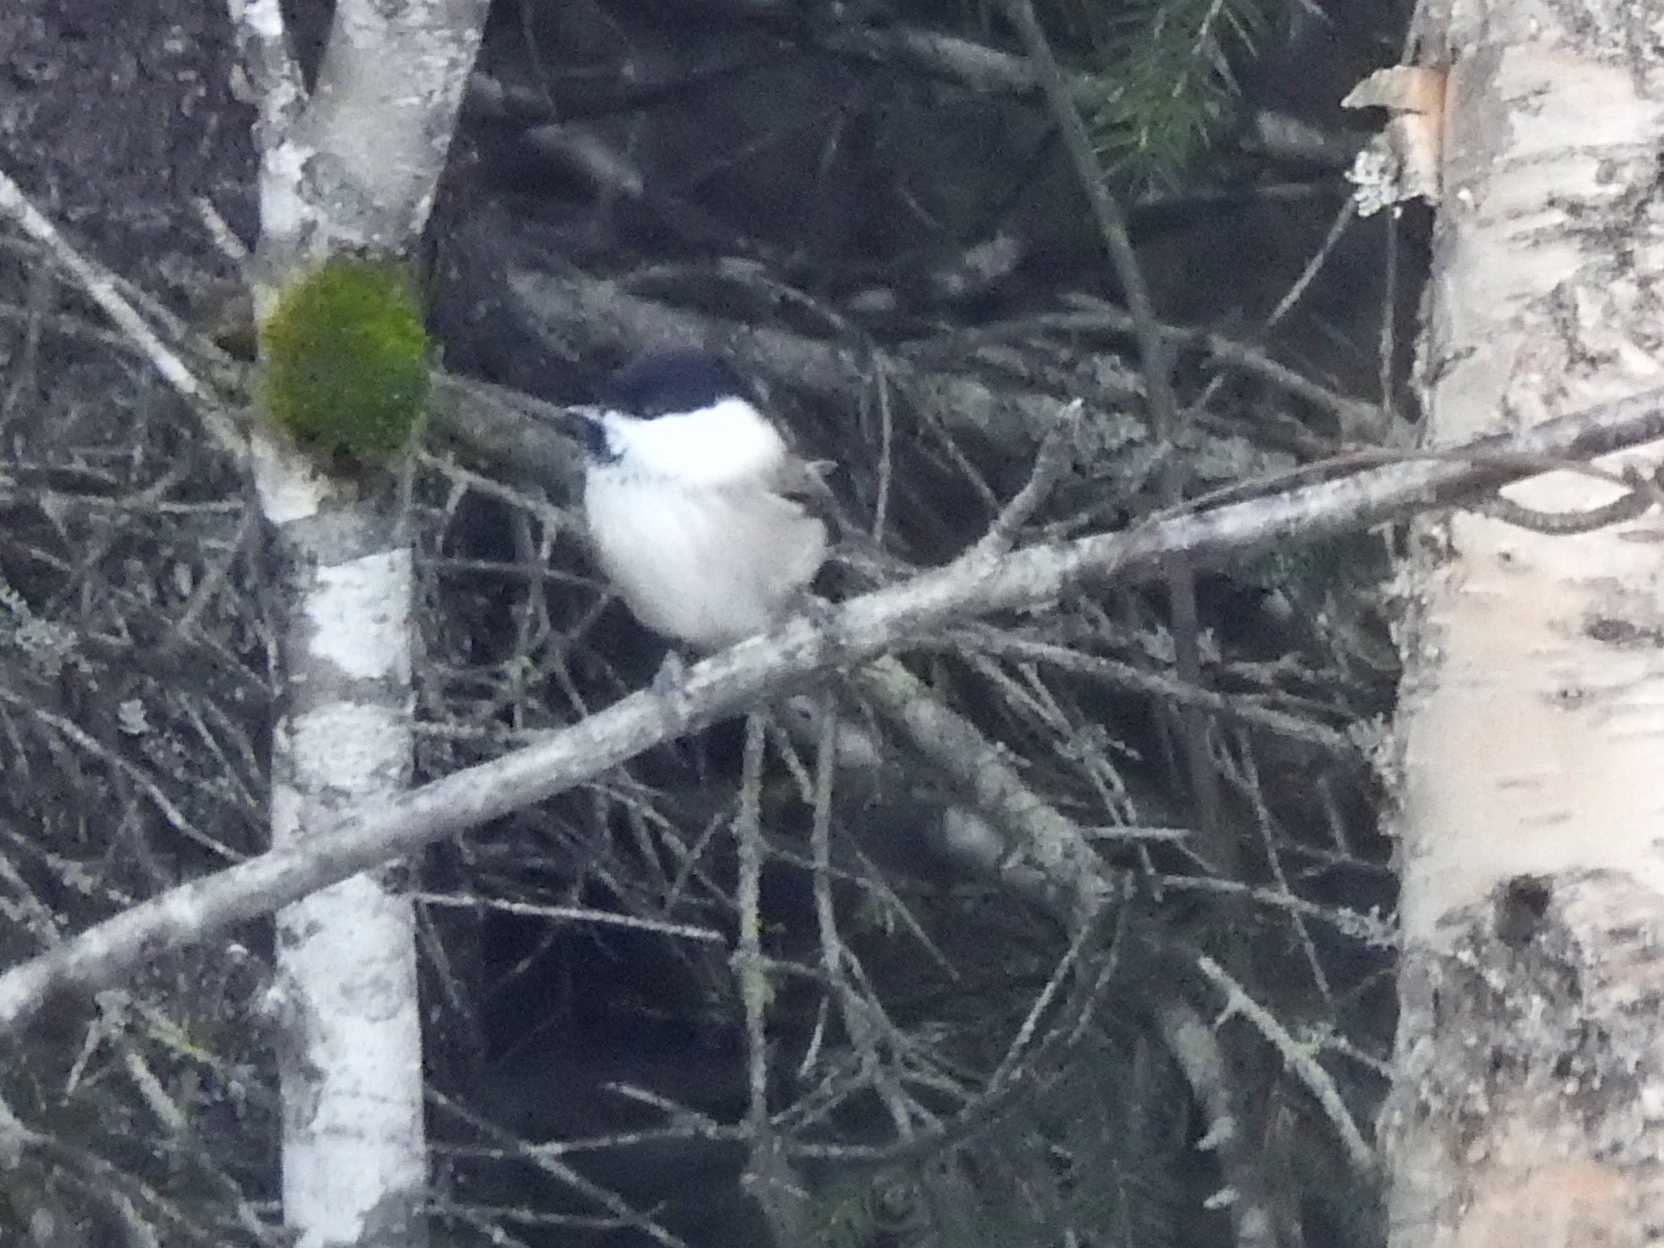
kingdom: Animalia
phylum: Chordata
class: Aves
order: Passeriformes
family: Paridae
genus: Poecile
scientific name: Poecile montanus
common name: Willow tit
